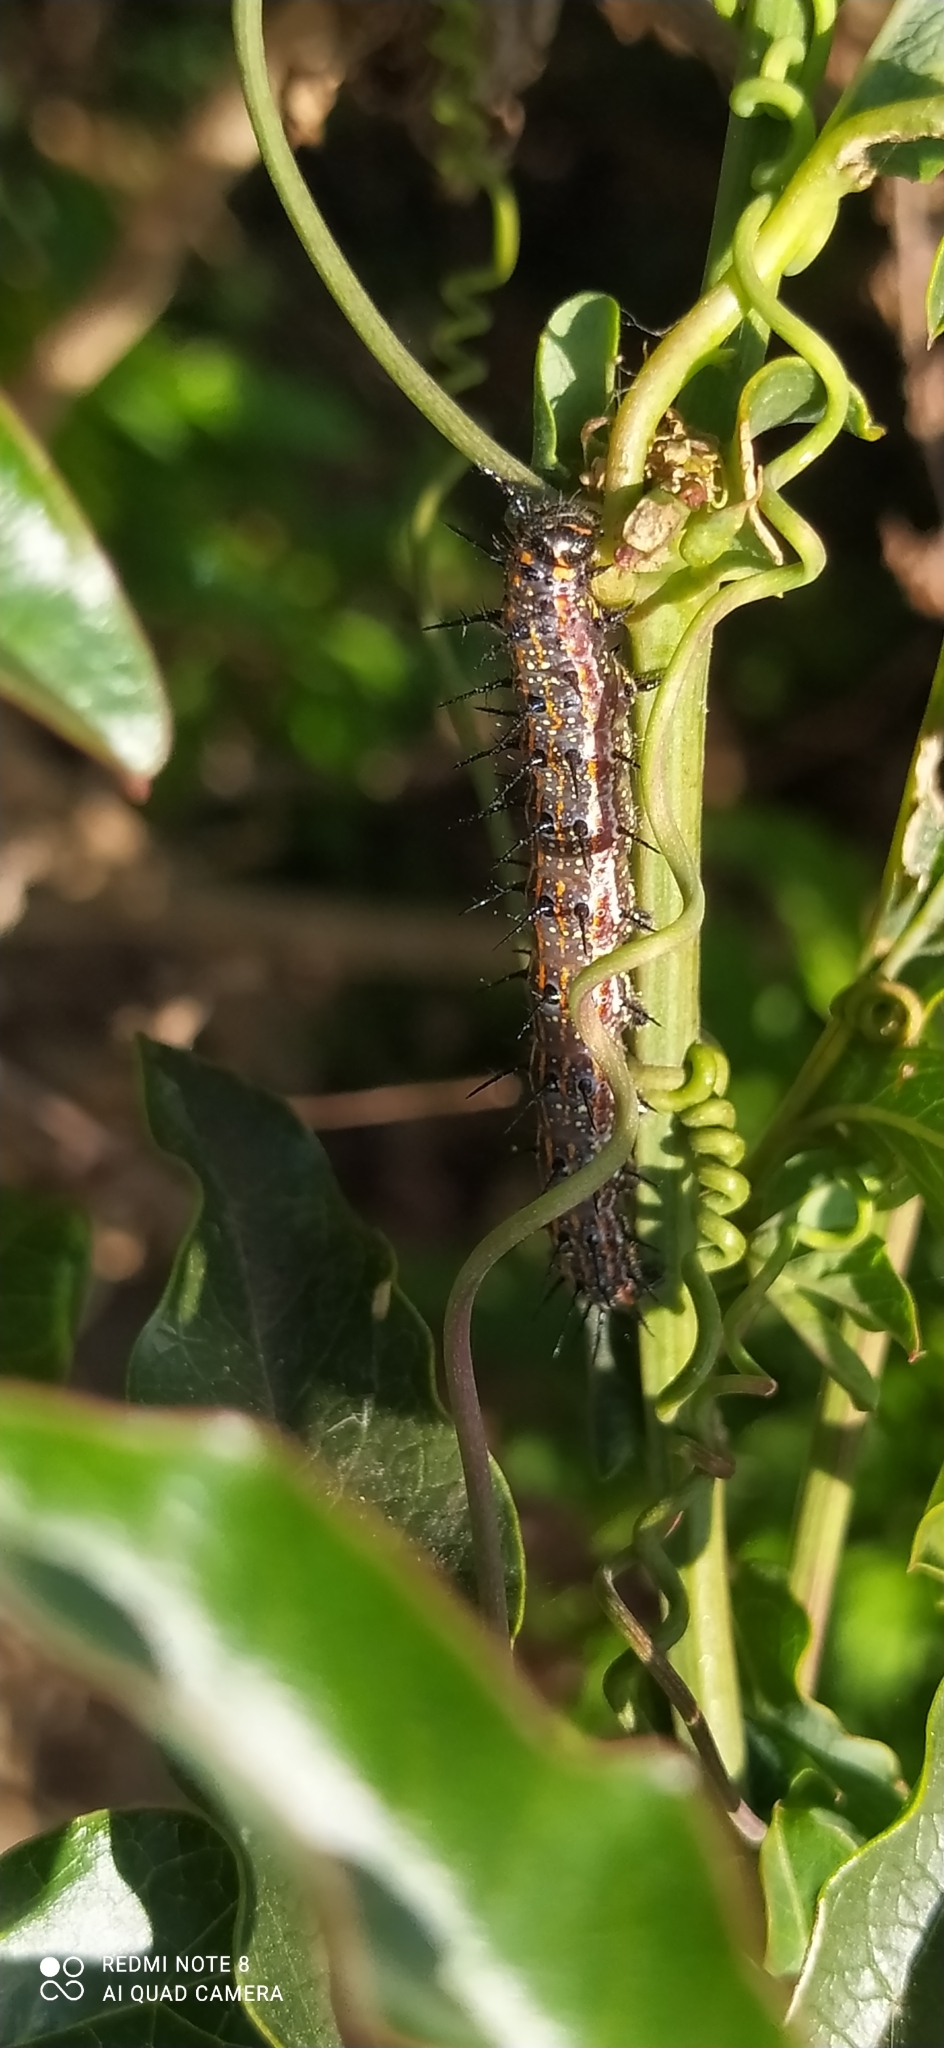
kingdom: Animalia
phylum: Arthropoda
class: Insecta
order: Lepidoptera
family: Nymphalidae
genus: Dione
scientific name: Dione vanillae
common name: Gulf fritillary
